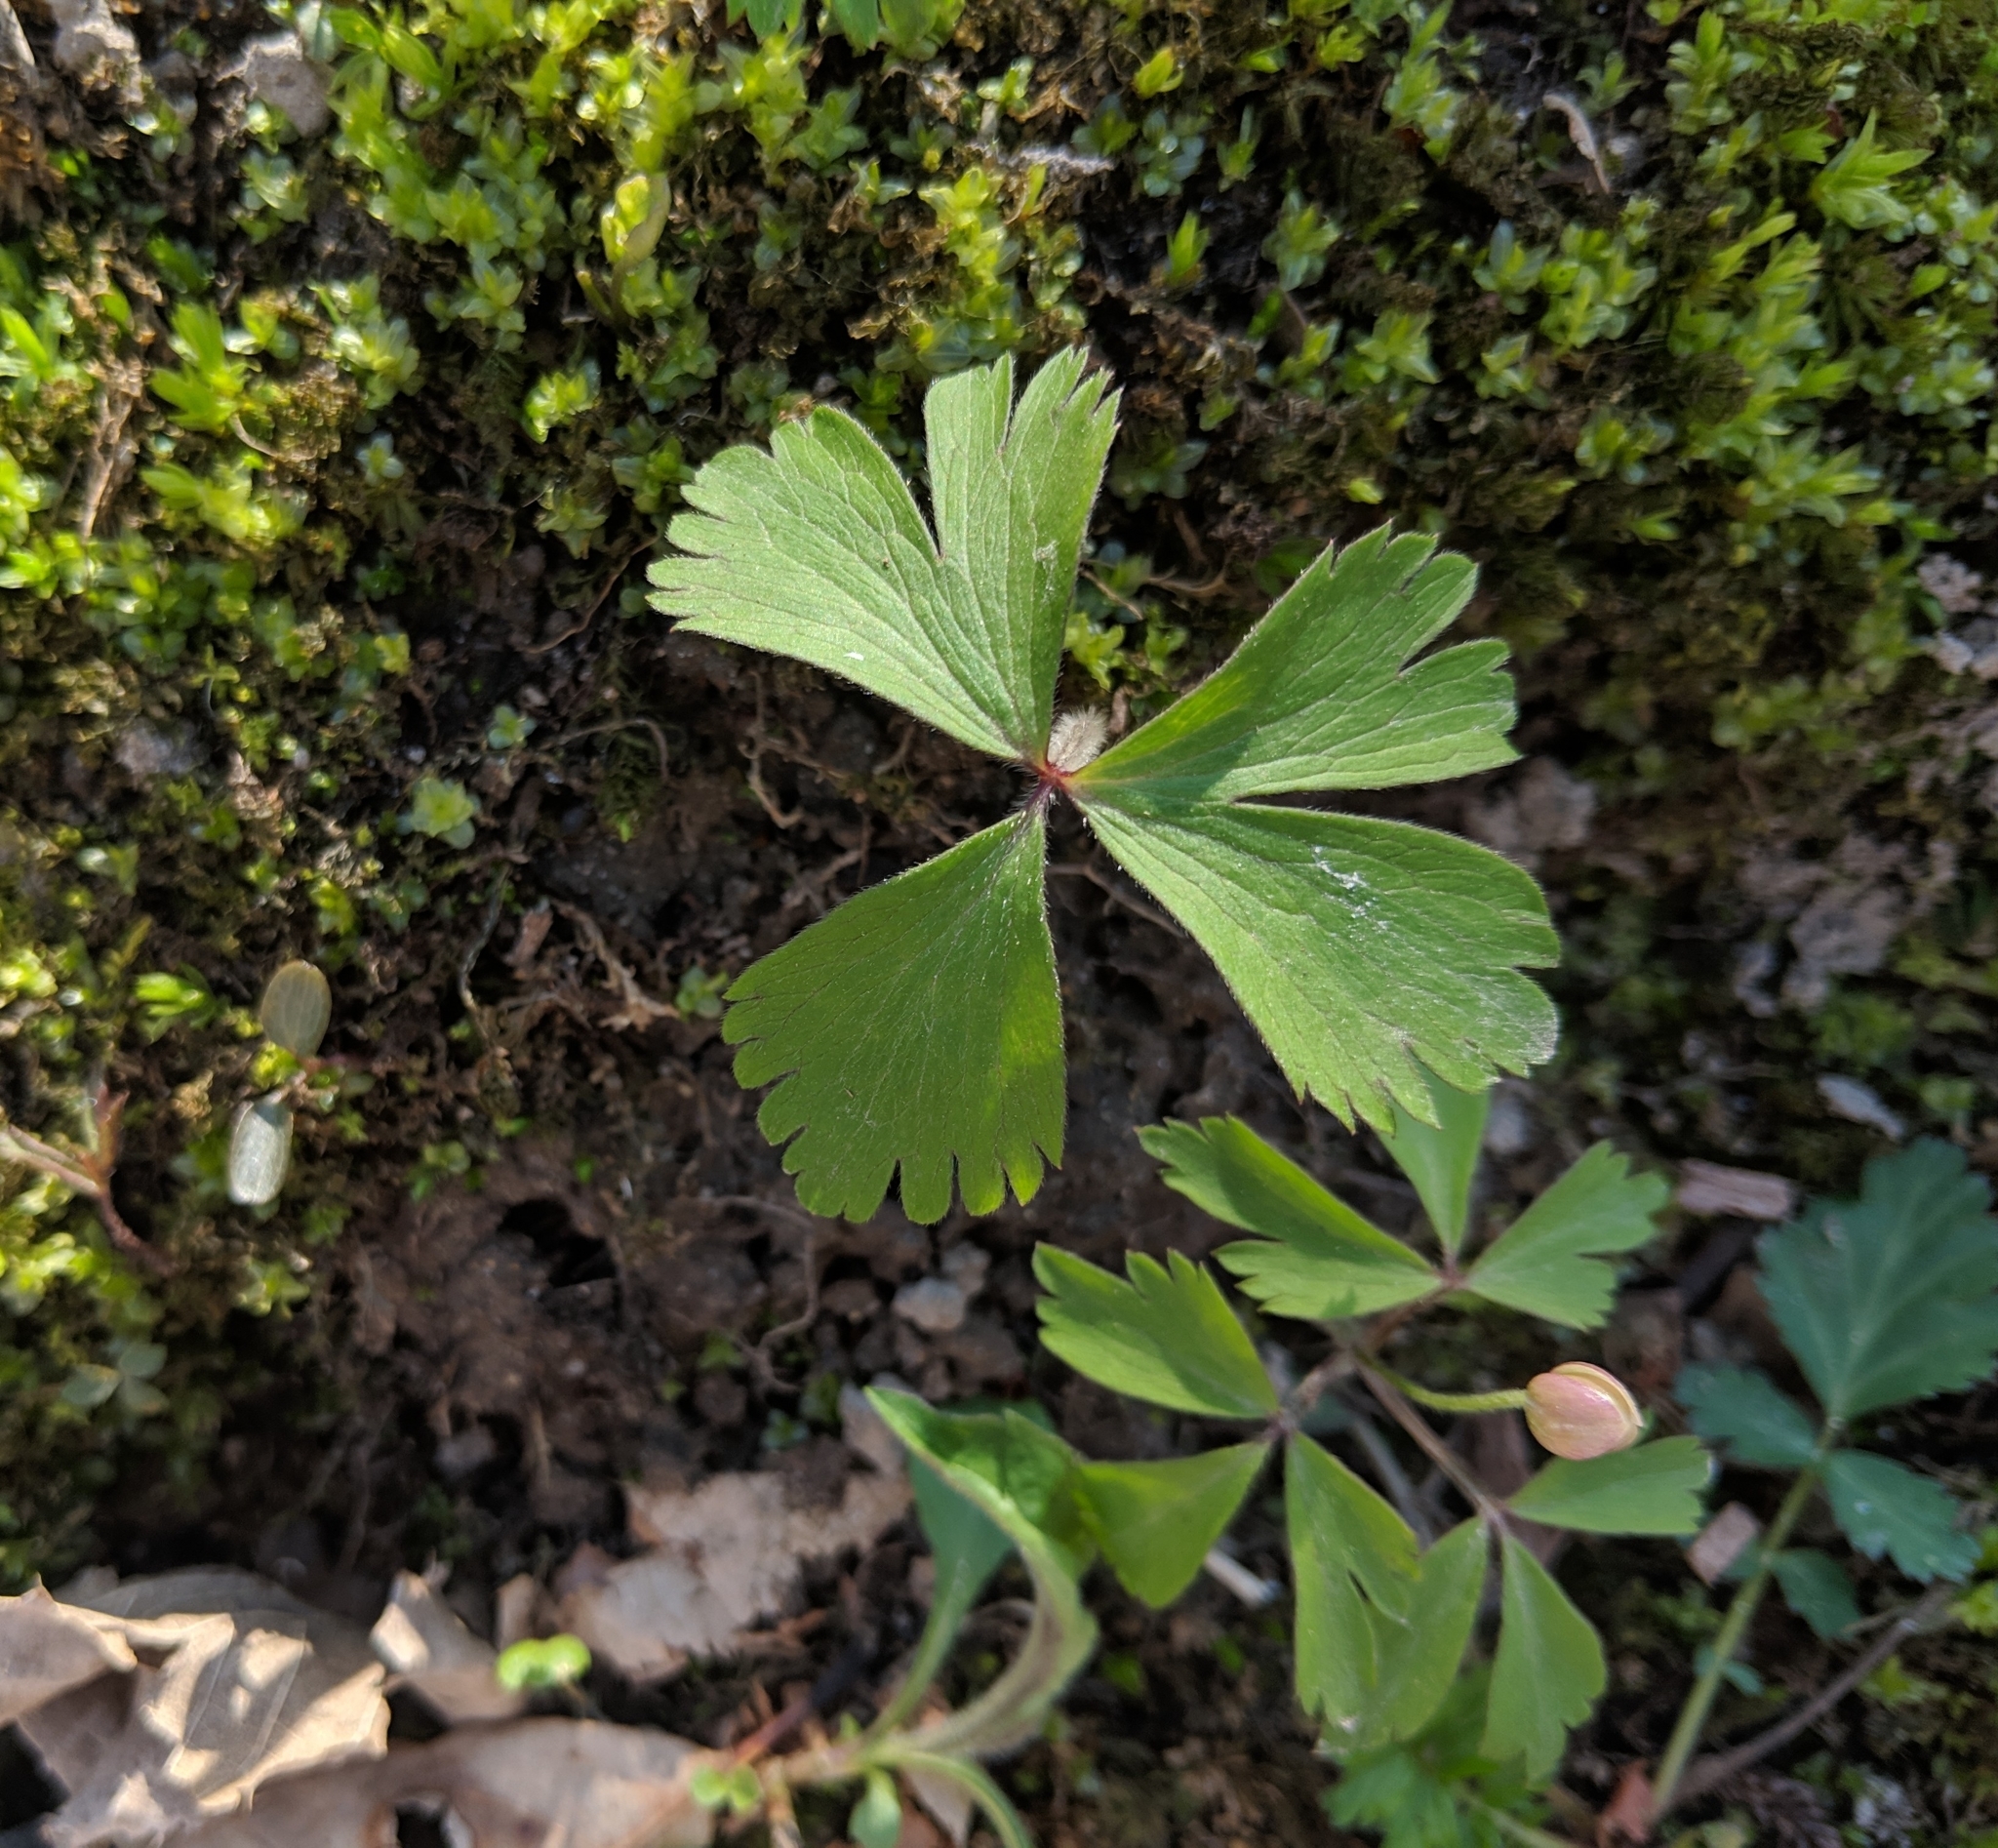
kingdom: Plantae
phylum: Tracheophyta
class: Magnoliopsida
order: Ranunculales
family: Ranunculaceae
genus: Anemone
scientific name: Anemone quinquefolia
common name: Wood anemone
